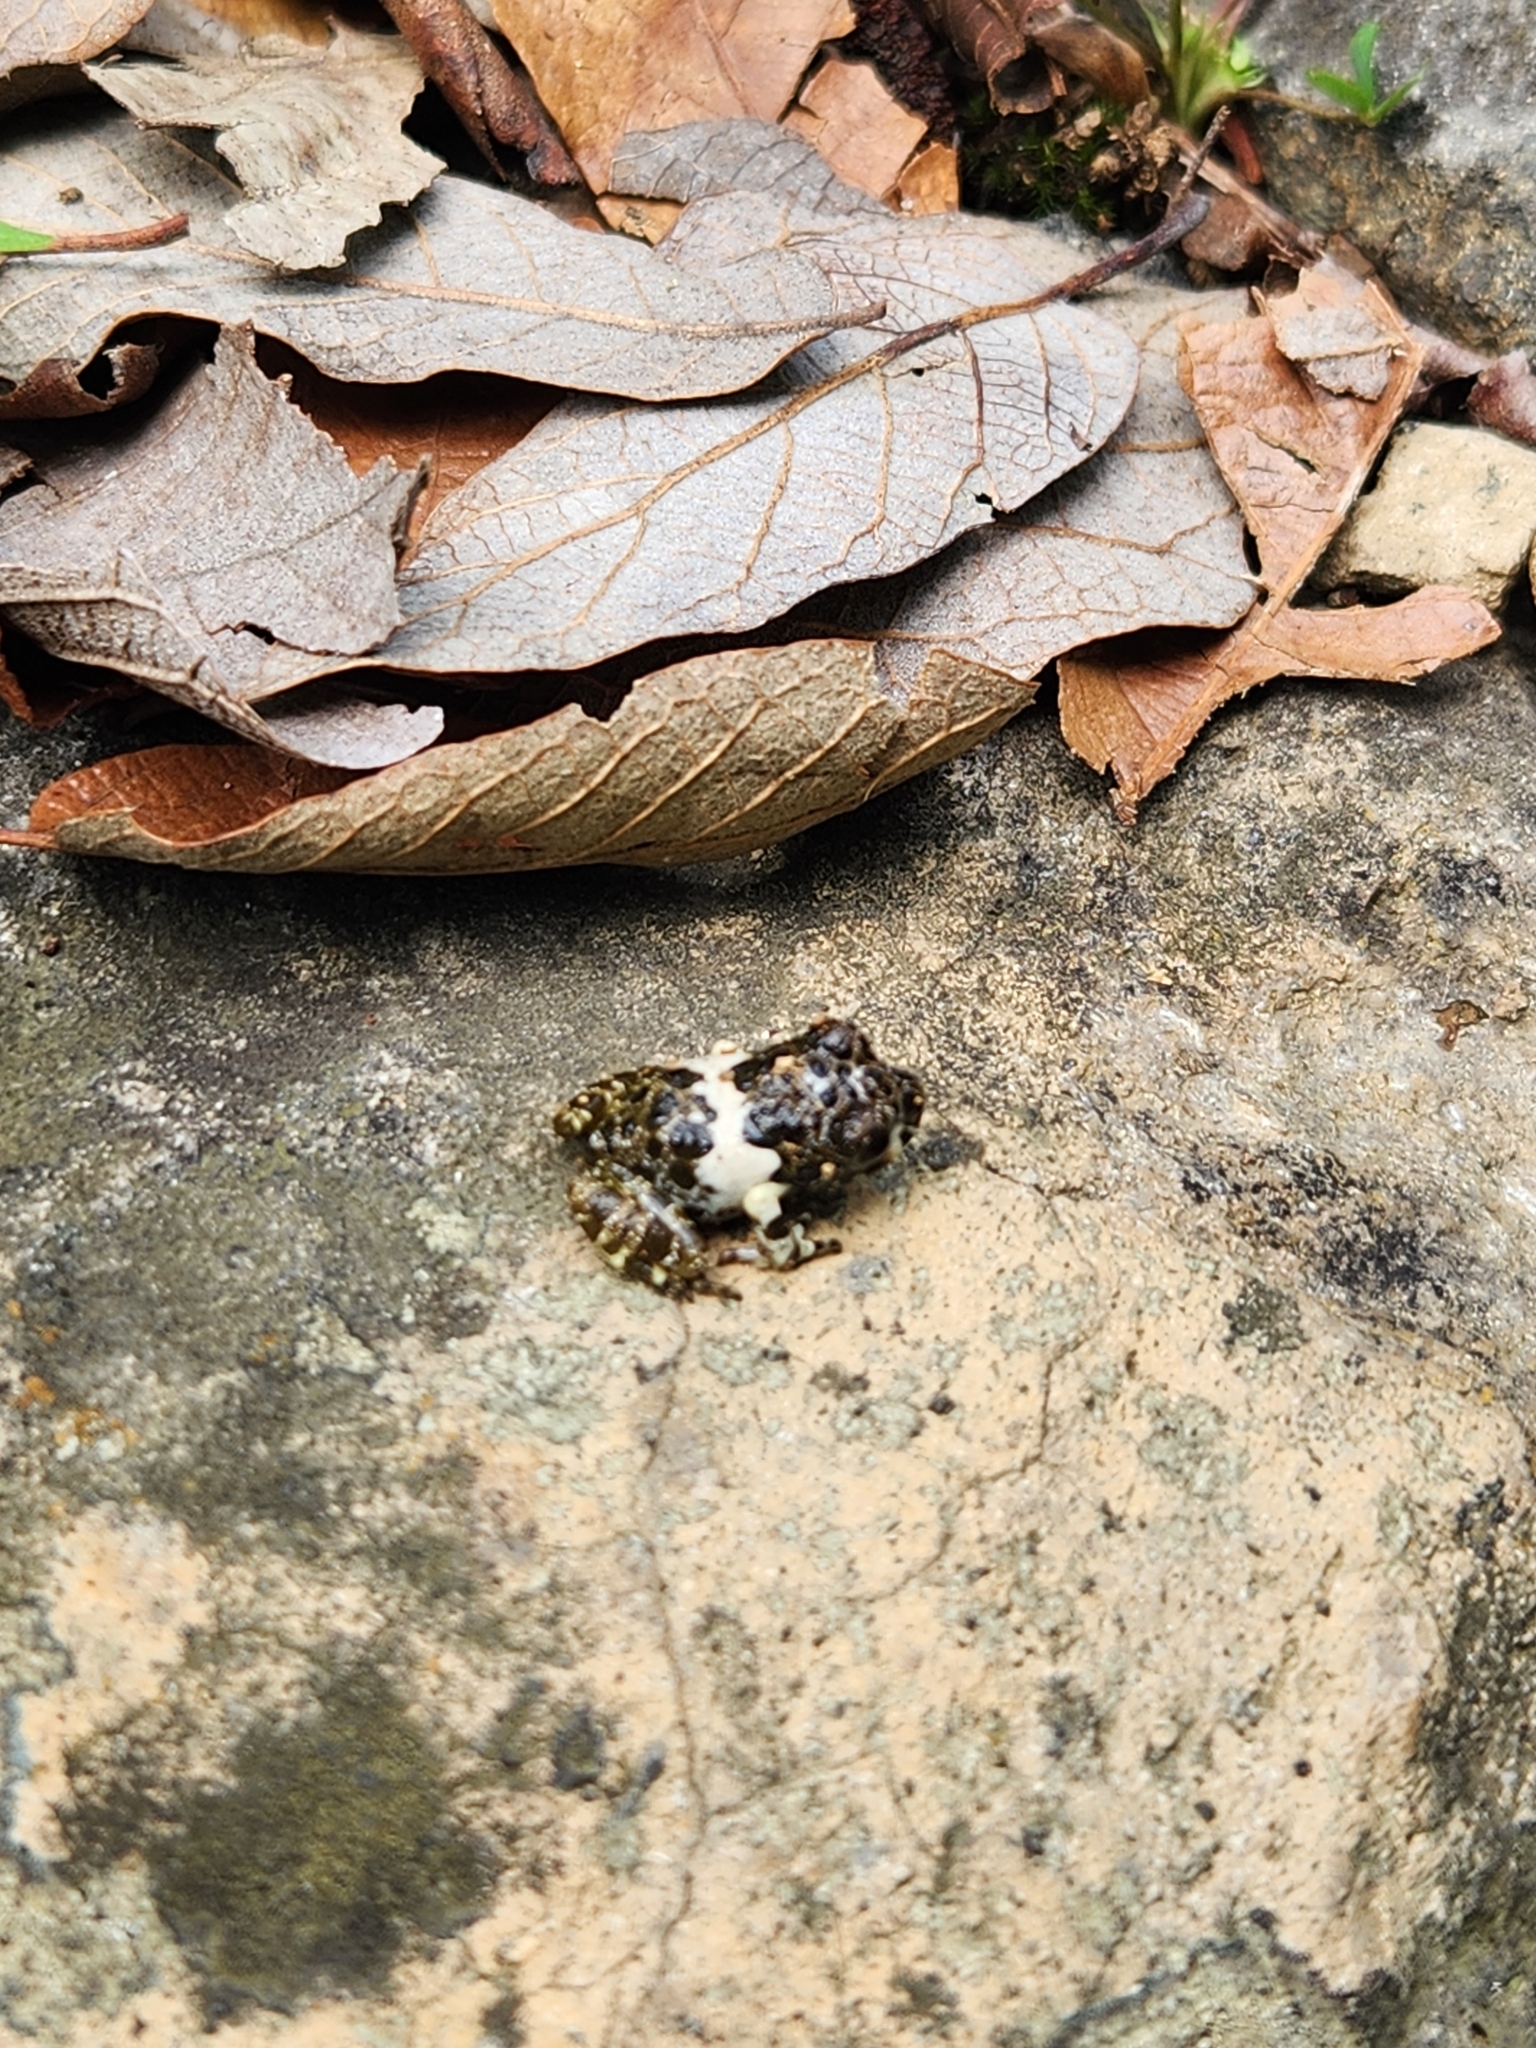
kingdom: Animalia
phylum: Chordata
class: Amphibia
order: Anura
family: Craugastoridae
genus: Craugastor
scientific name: Craugastor augusti
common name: Barking frog
